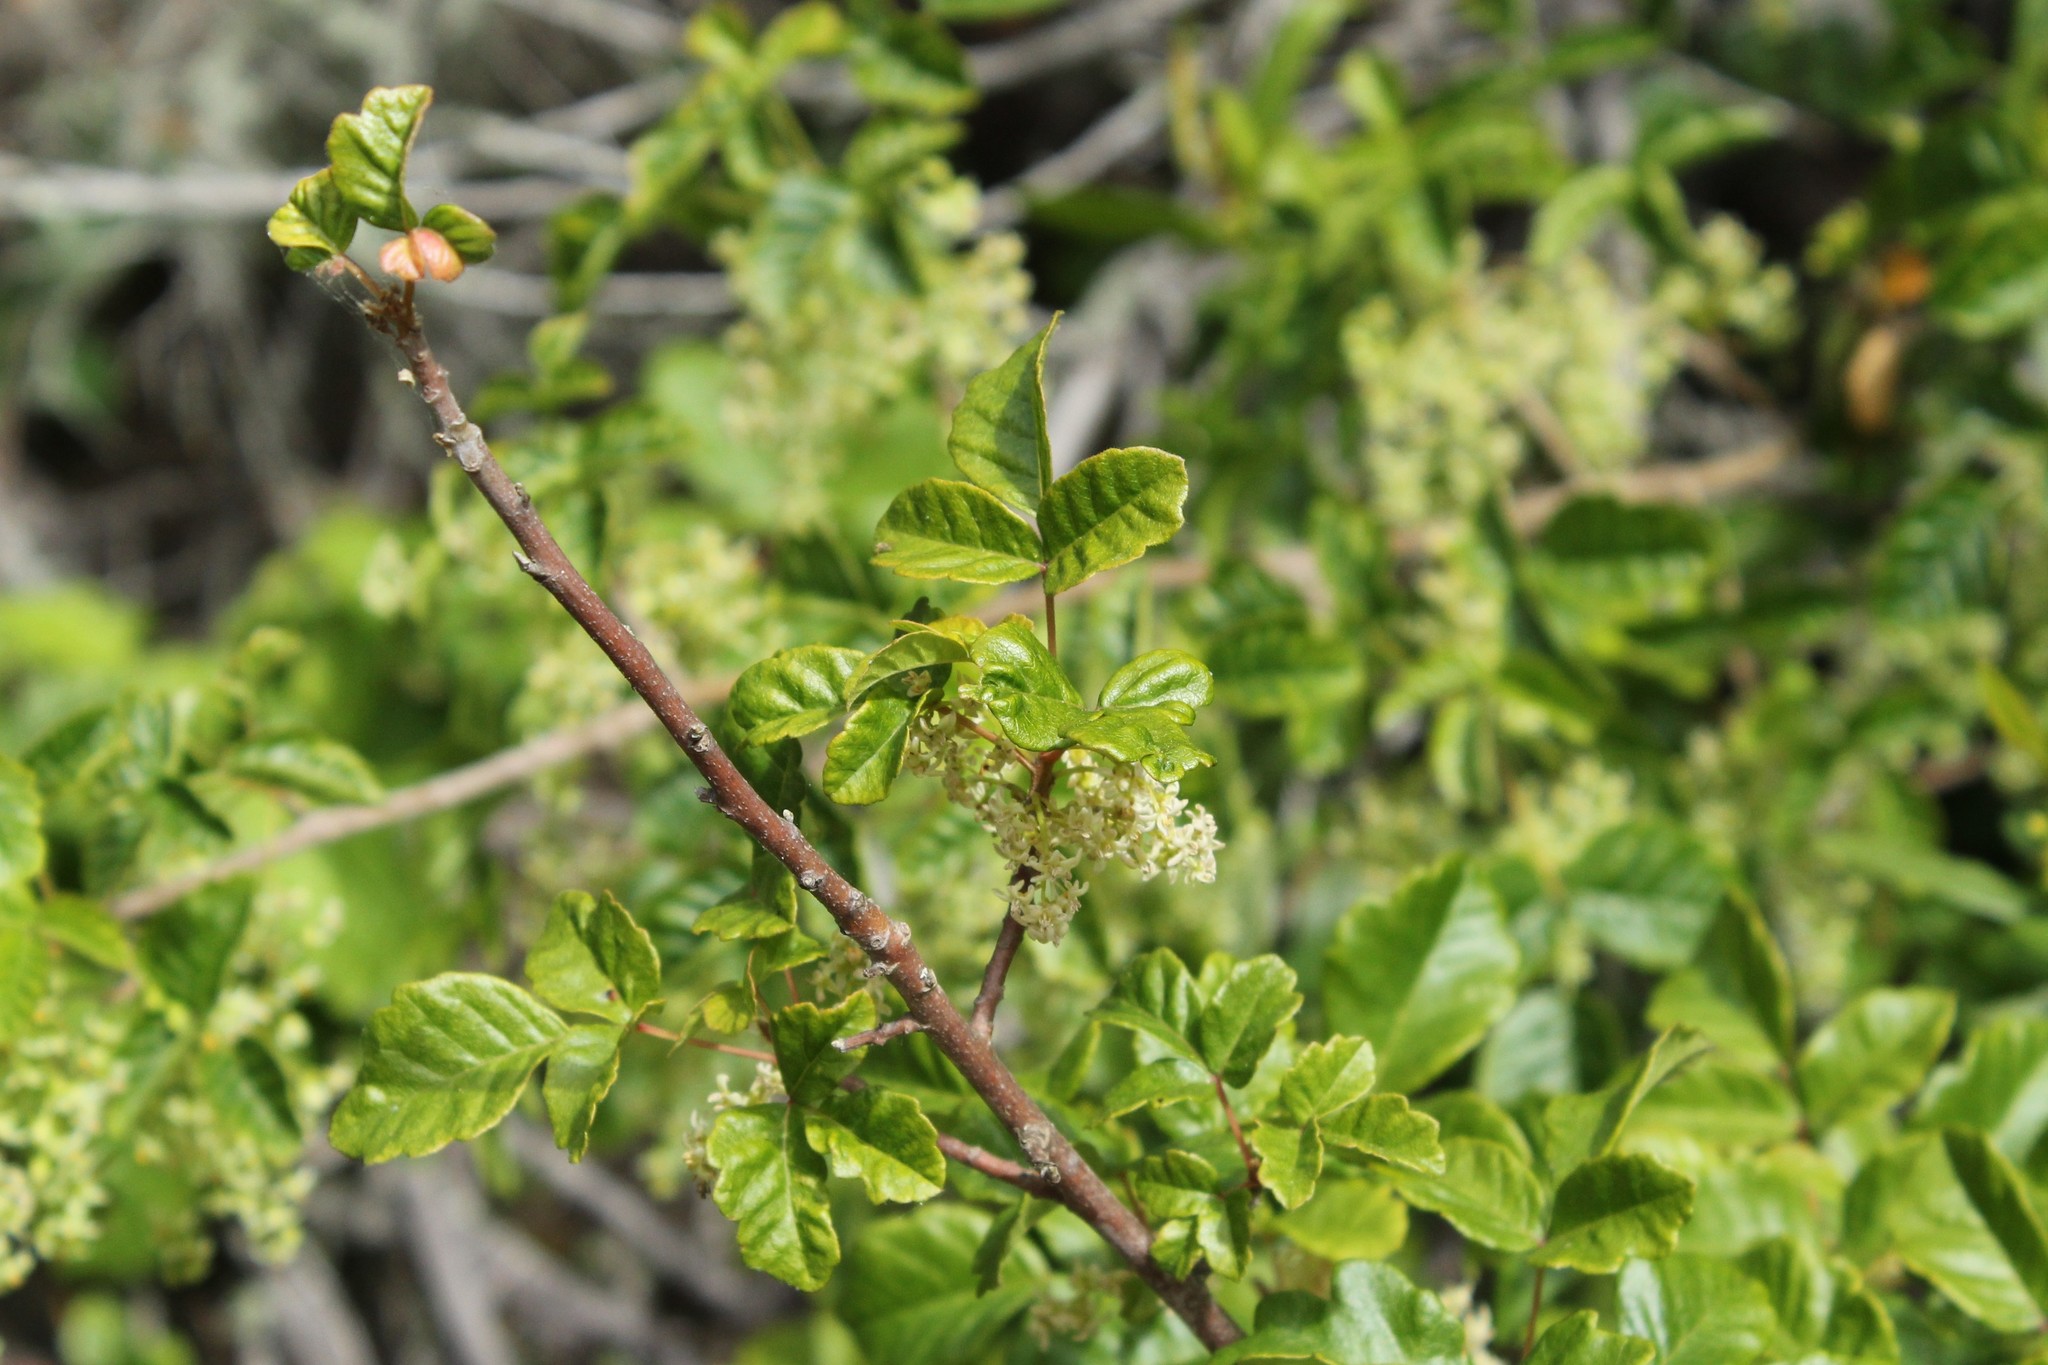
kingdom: Plantae
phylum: Tracheophyta
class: Magnoliopsida
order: Sapindales
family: Anacardiaceae
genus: Toxicodendron
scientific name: Toxicodendron diversilobum
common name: Pacific poison-oak
